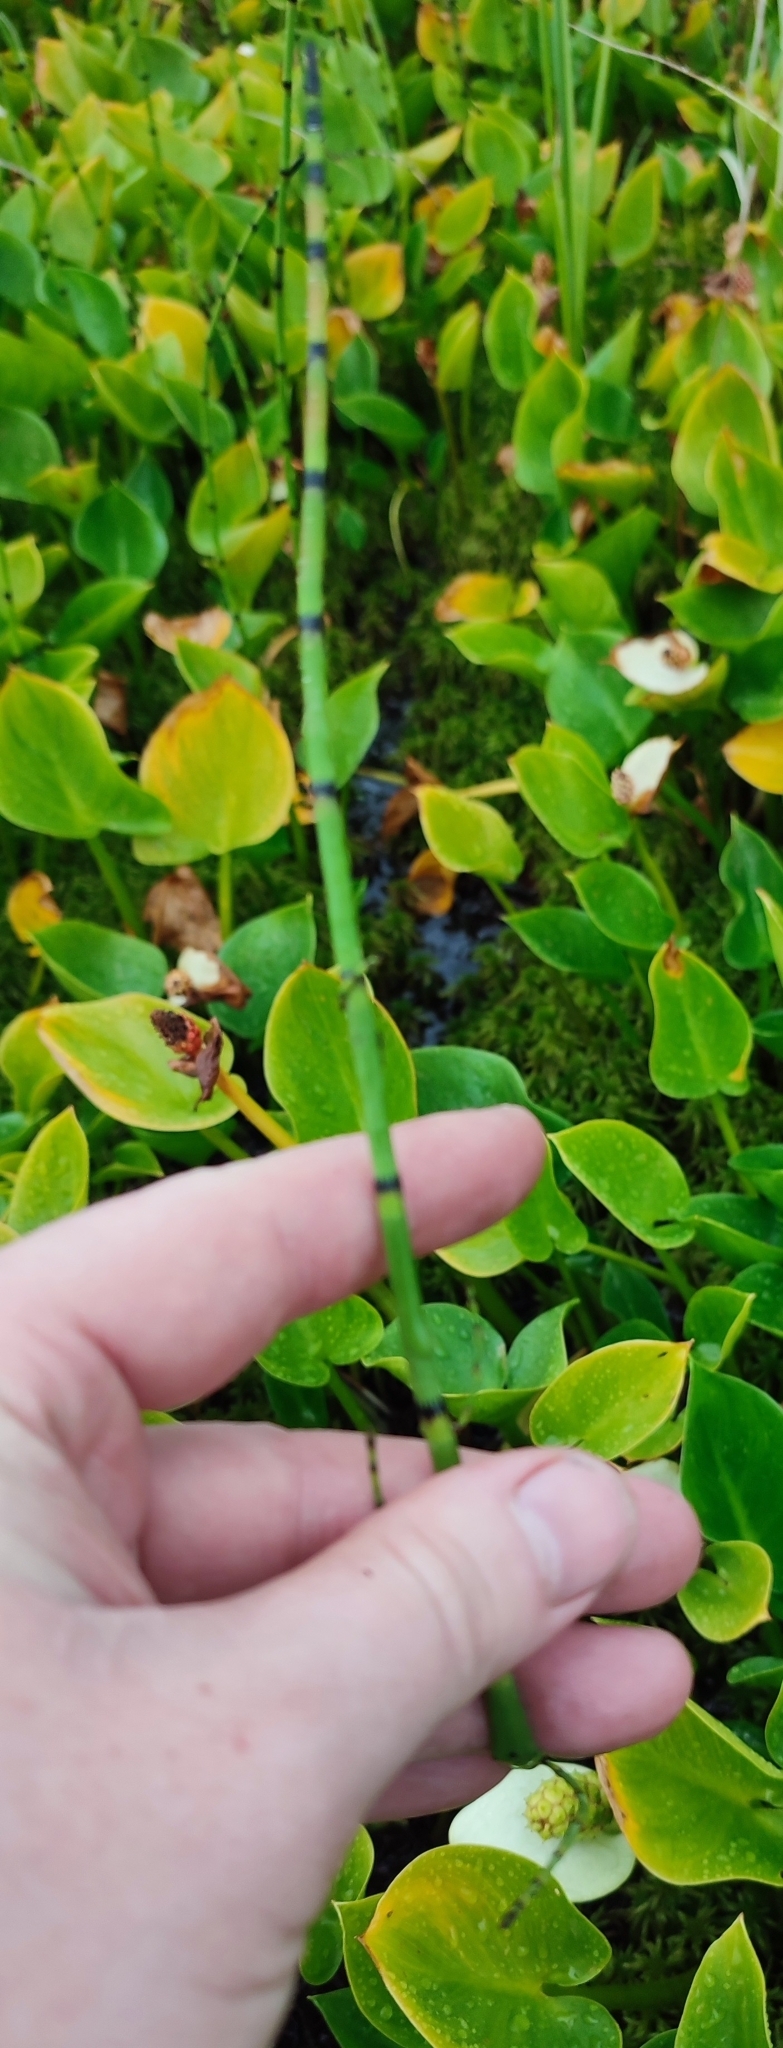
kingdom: Plantae
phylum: Tracheophyta
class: Polypodiopsida
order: Equisetales
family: Equisetaceae
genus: Equisetum
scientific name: Equisetum fluviatile
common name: Water horsetail
